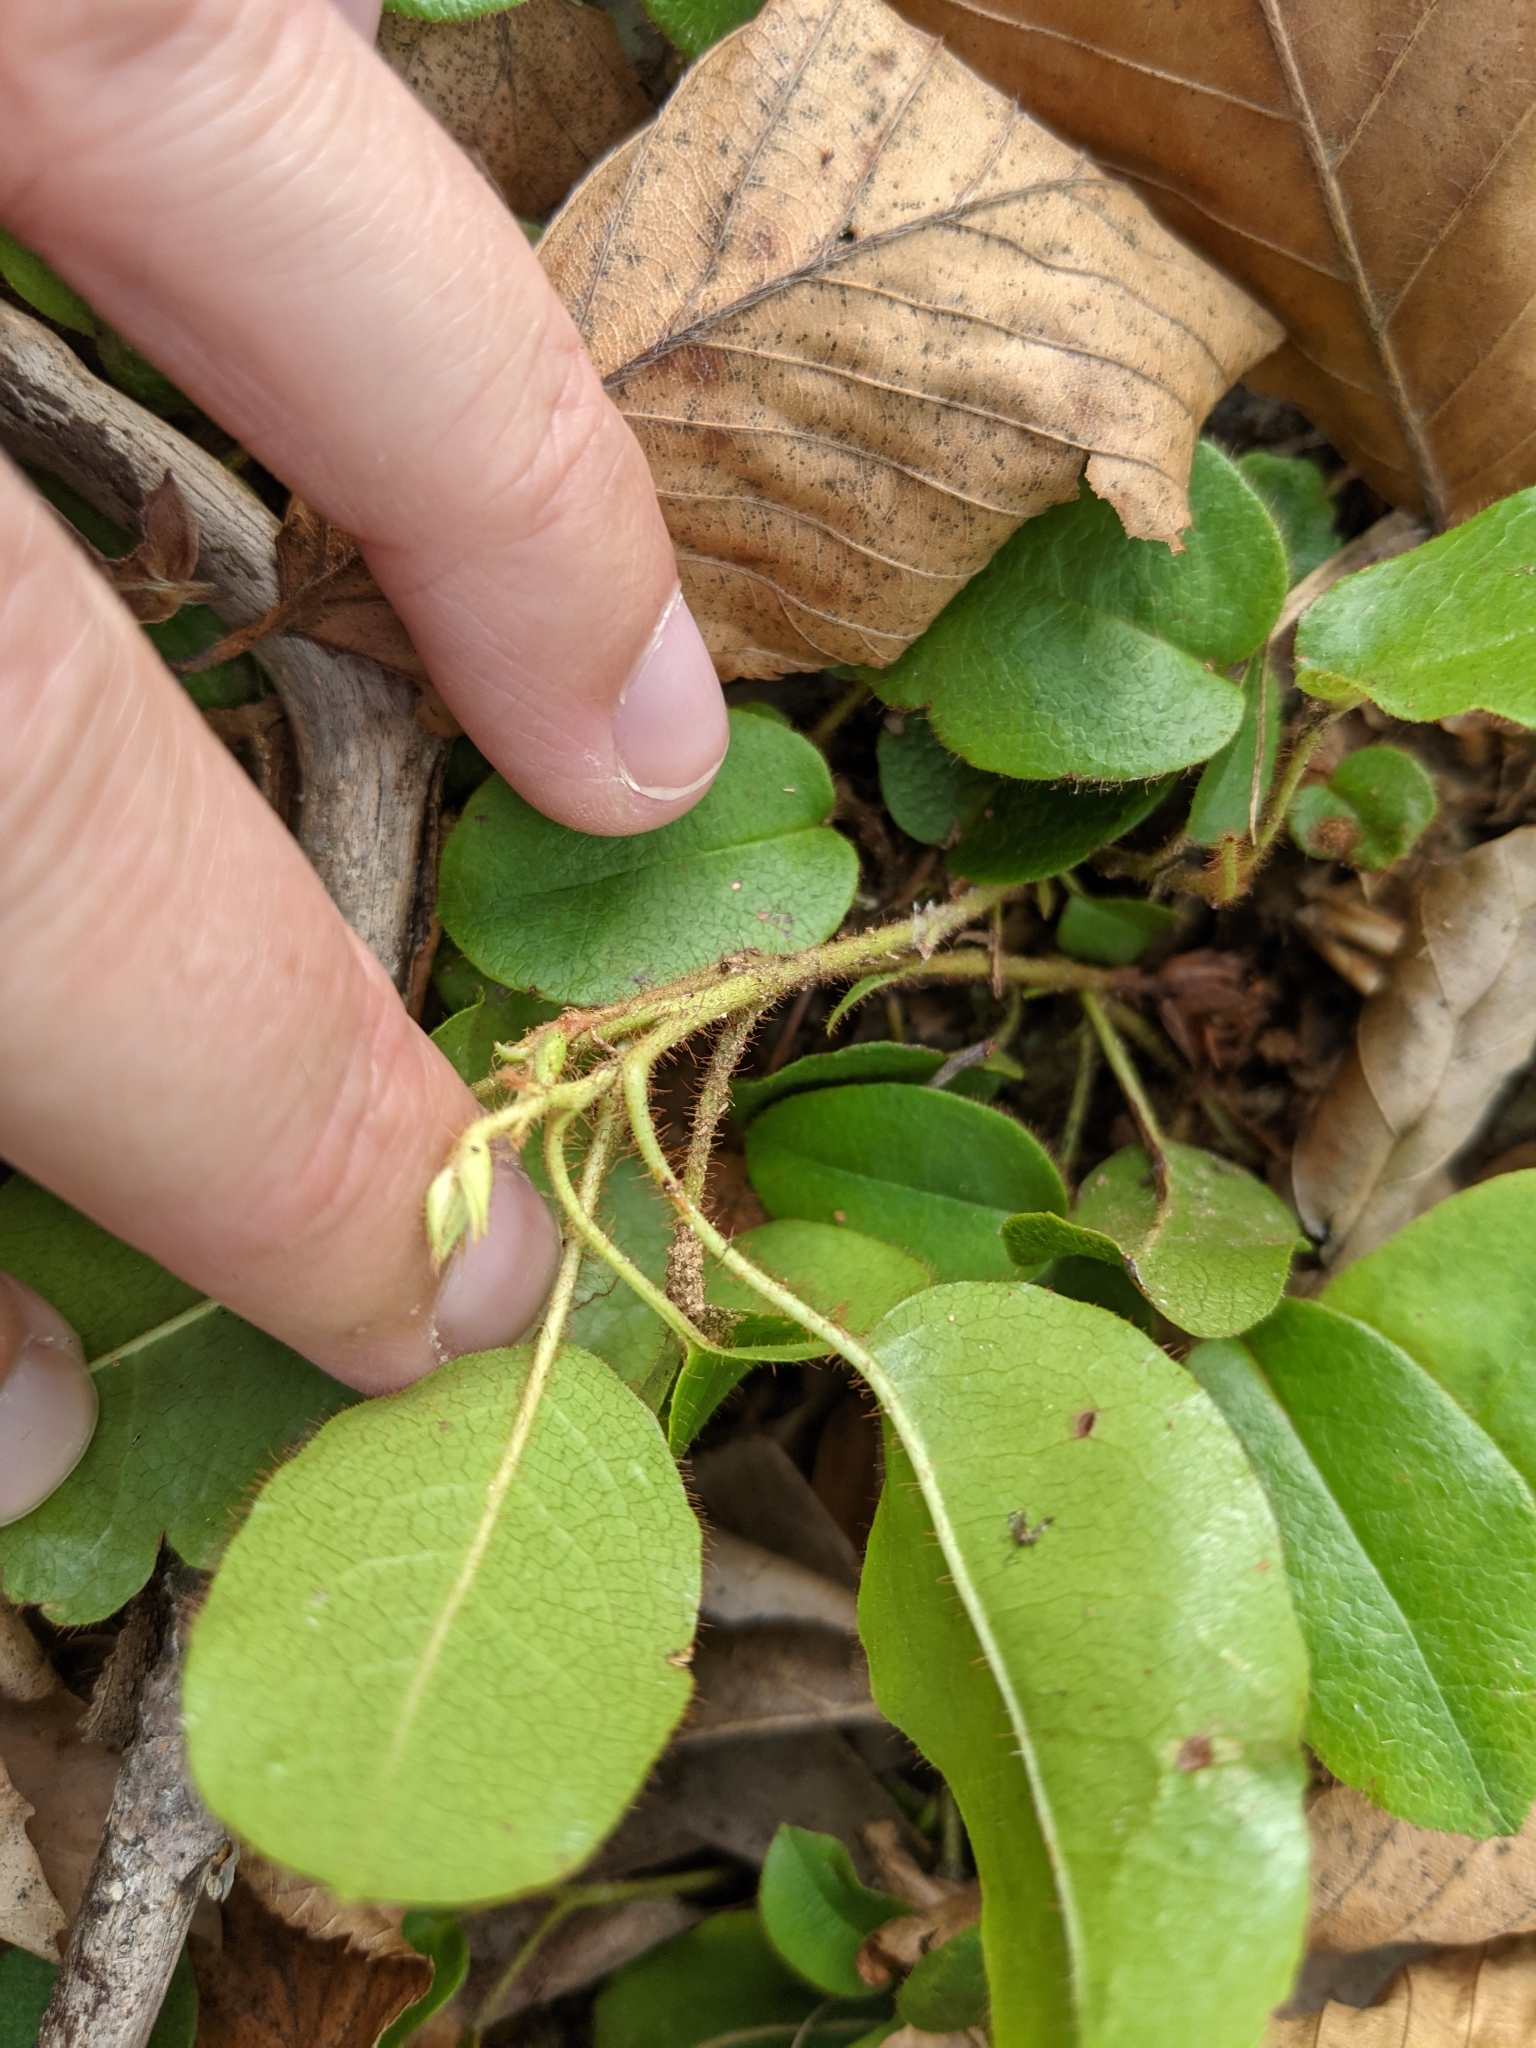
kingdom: Plantae
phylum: Tracheophyta
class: Magnoliopsida
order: Ericales
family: Ericaceae
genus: Epigaea
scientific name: Epigaea repens
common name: Gravelroot
